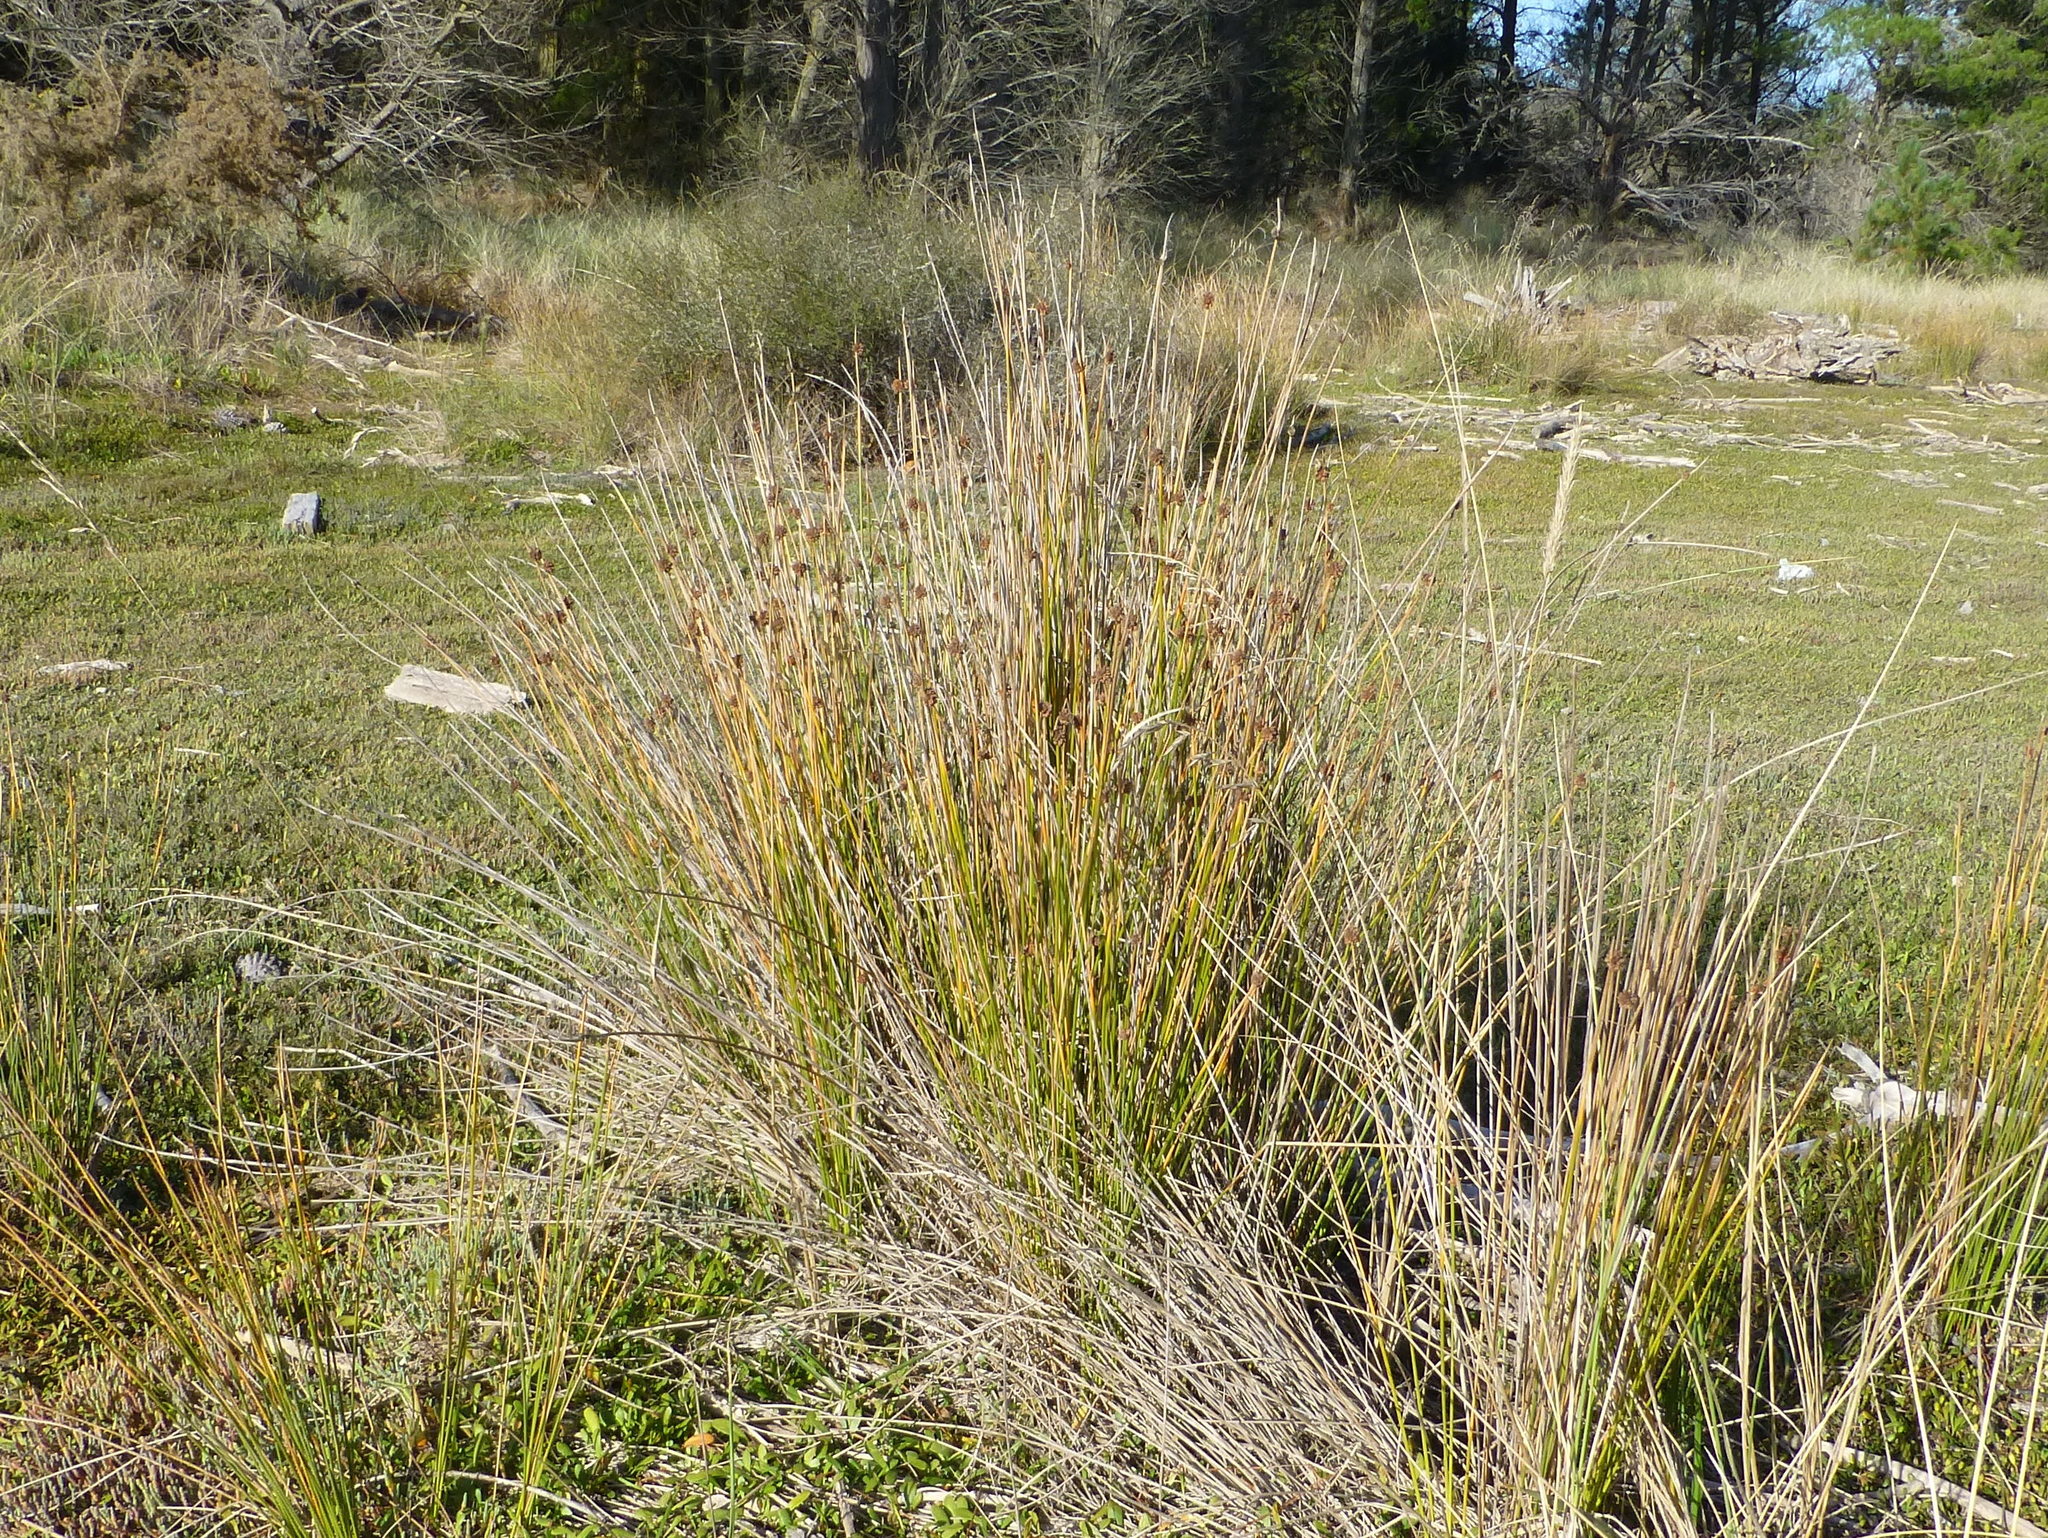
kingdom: Plantae
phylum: Tracheophyta
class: Liliopsida
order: Poales
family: Cyperaceae
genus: Ficinia
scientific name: Ficinia nodosa
